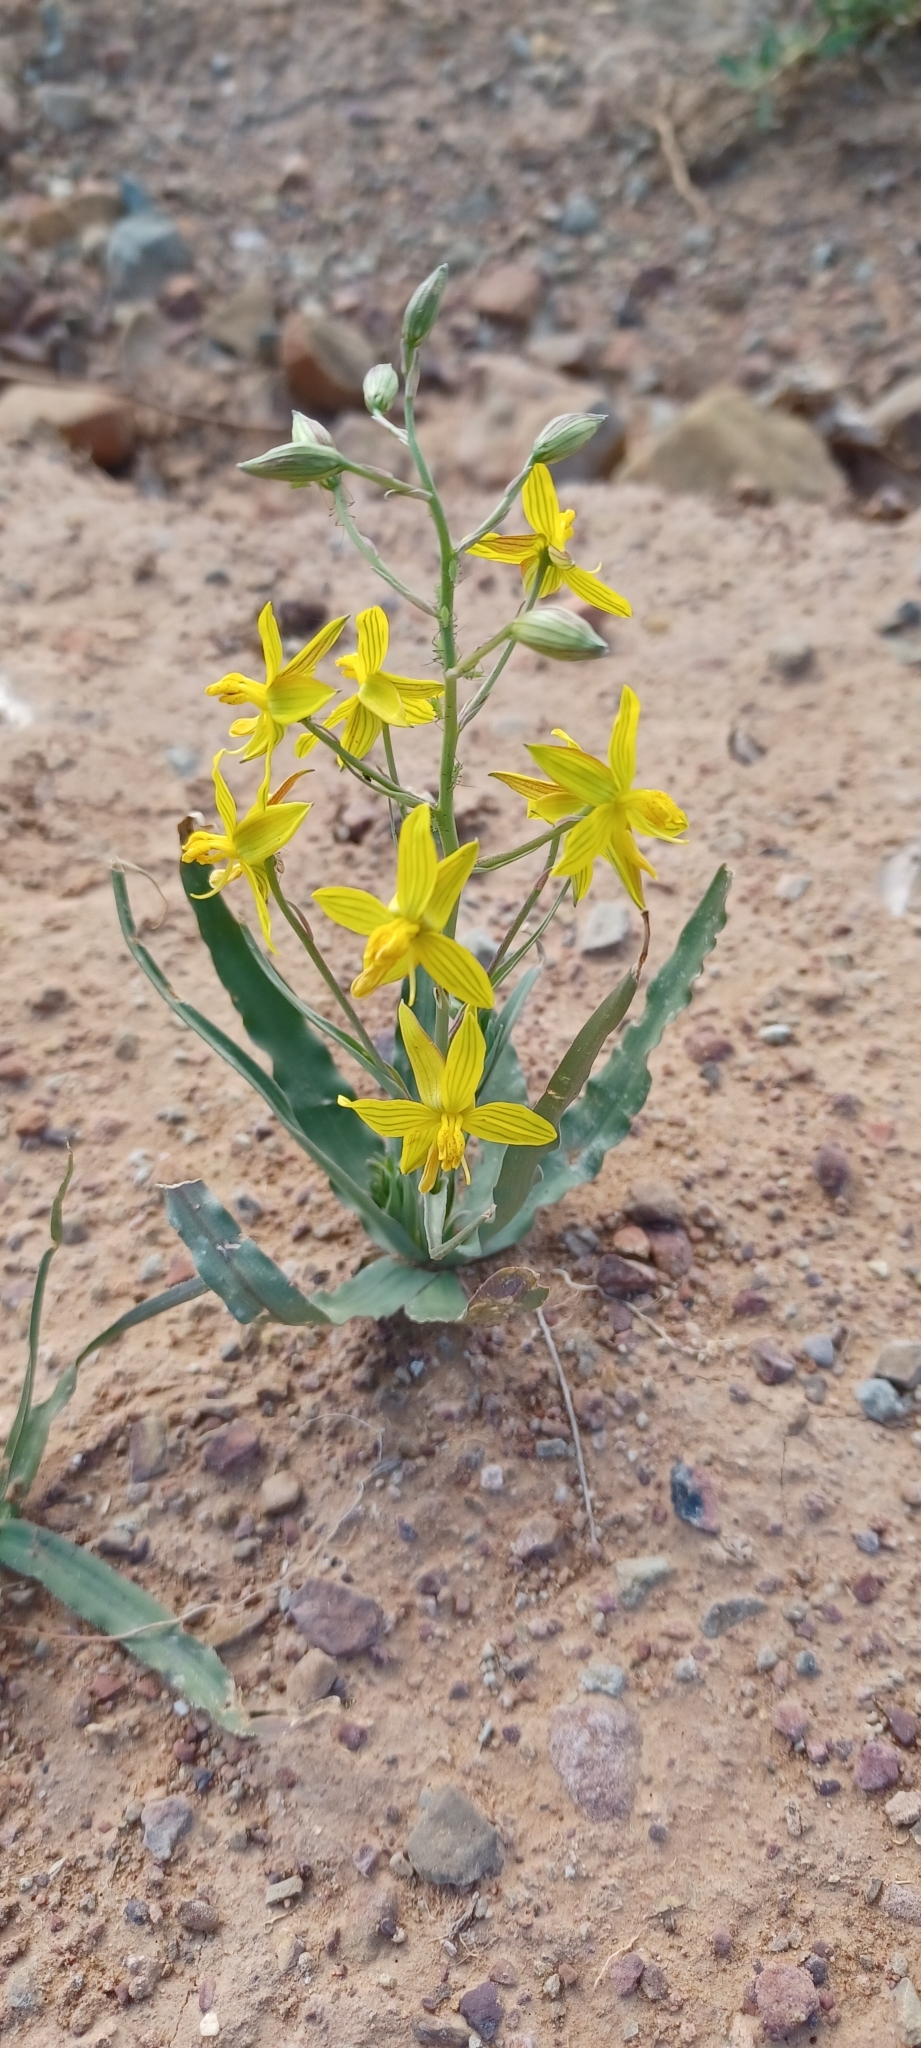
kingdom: Plantae
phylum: Tracheophyta
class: Liliopsida
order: Asparagales
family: Tecophilaeaceae
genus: Cyanella
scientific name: Cyanella lutea
